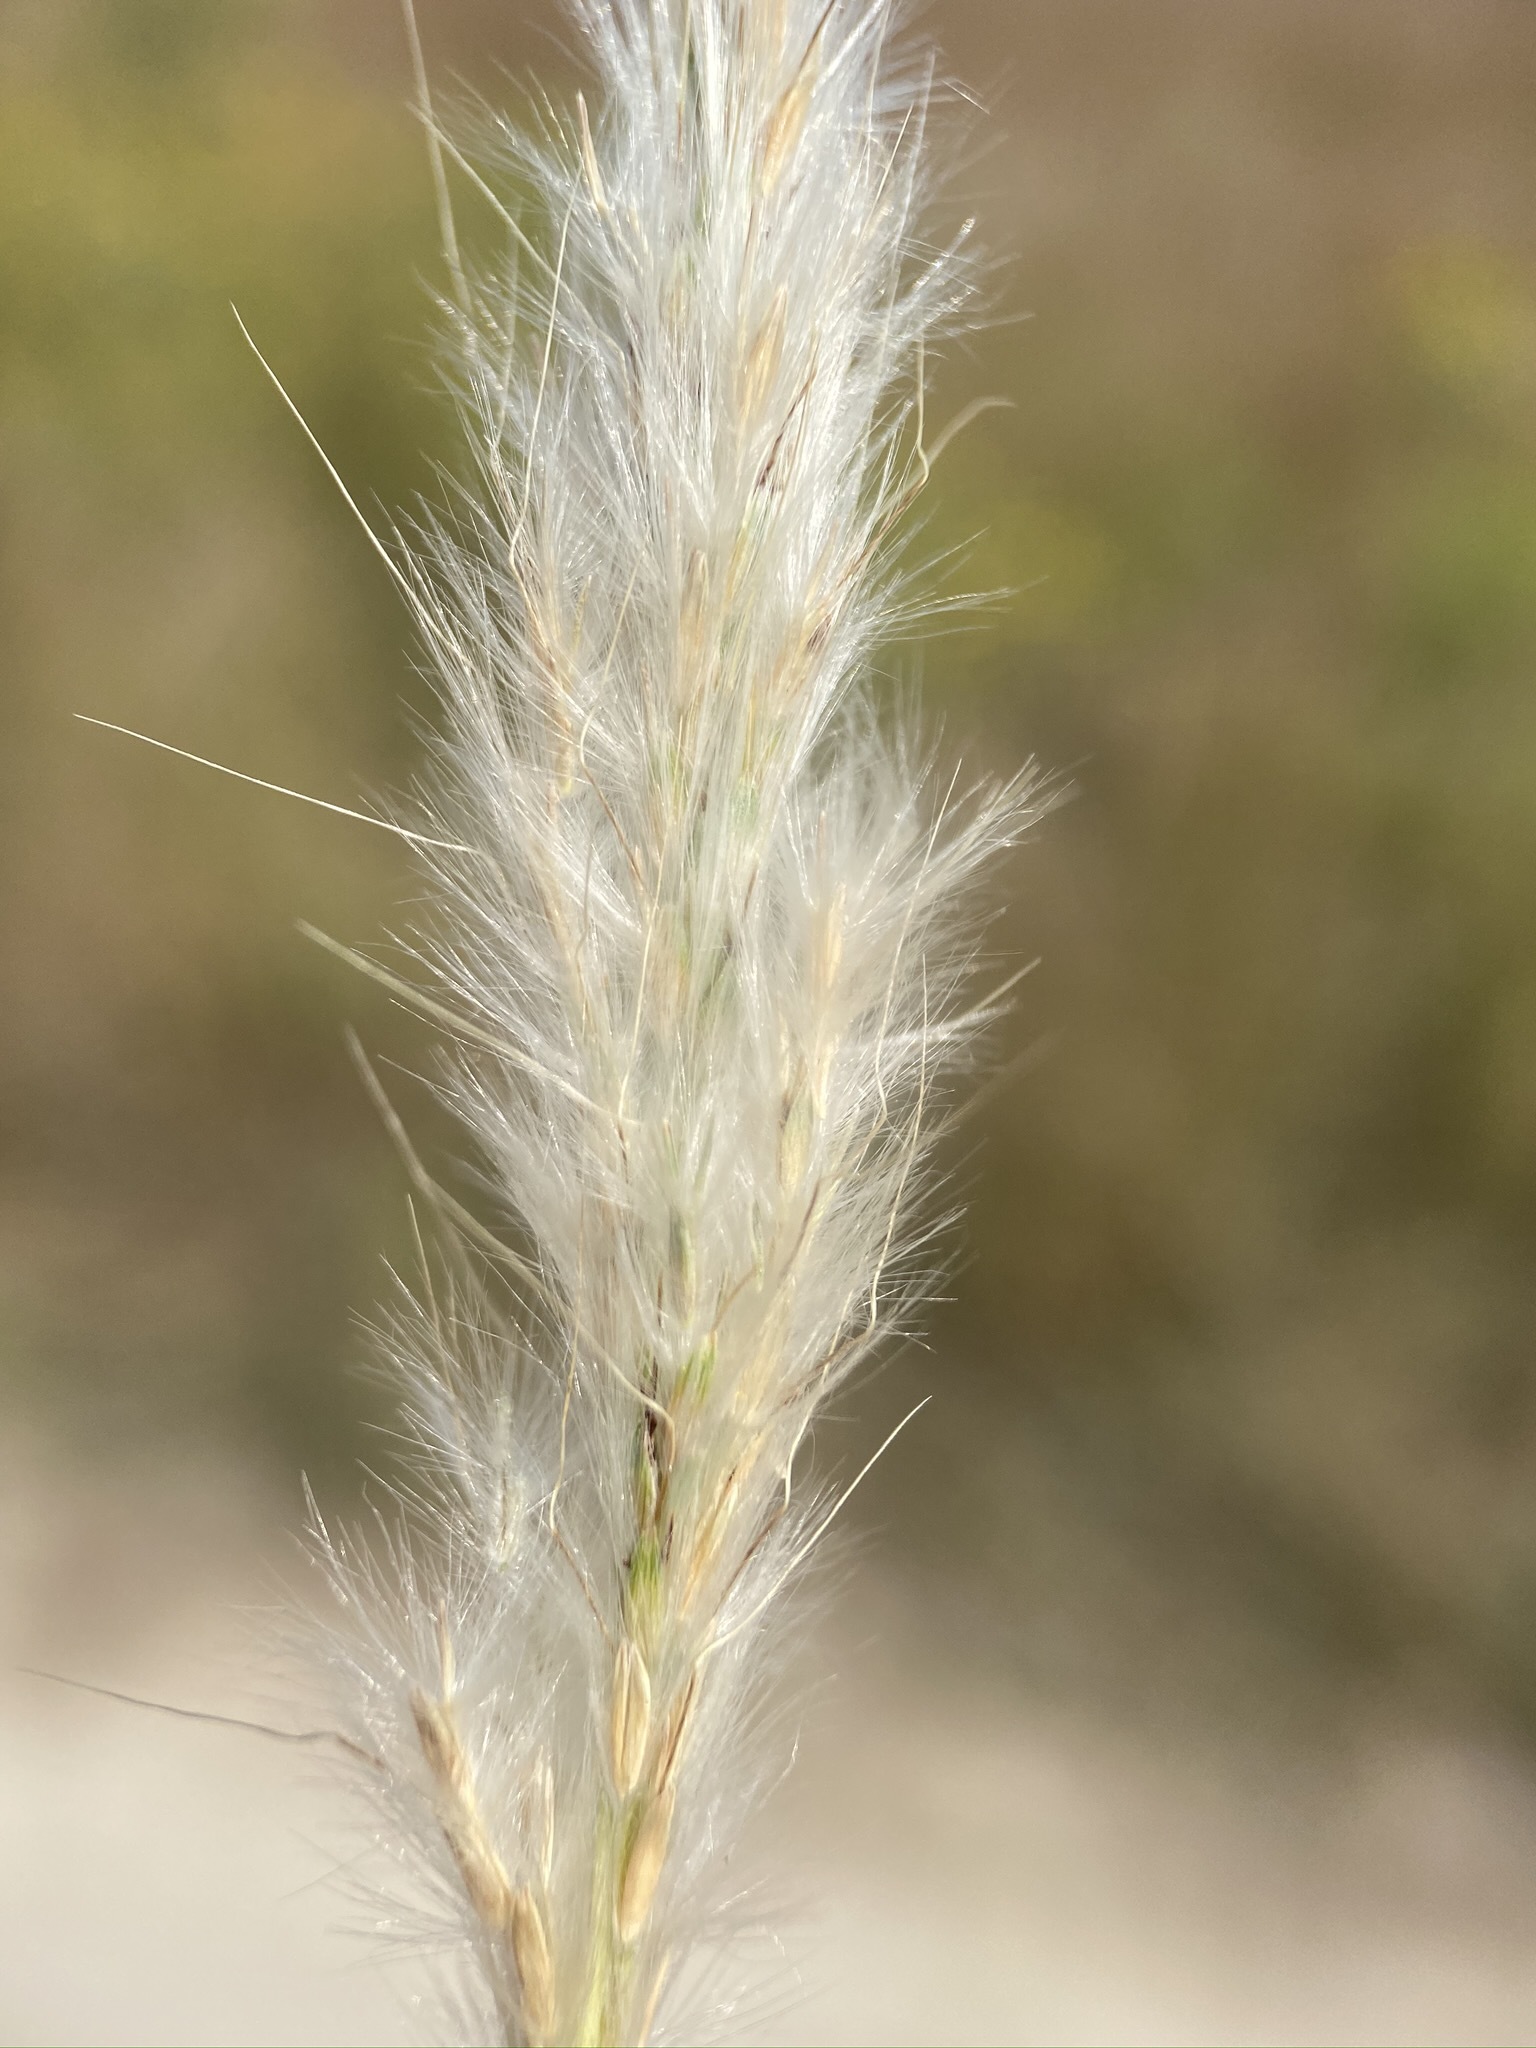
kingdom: Plantae
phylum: Tracheophyta
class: Liliopsida
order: Poales
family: Poaceae
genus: Bothriochloa
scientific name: Bothriochloa torreyana
